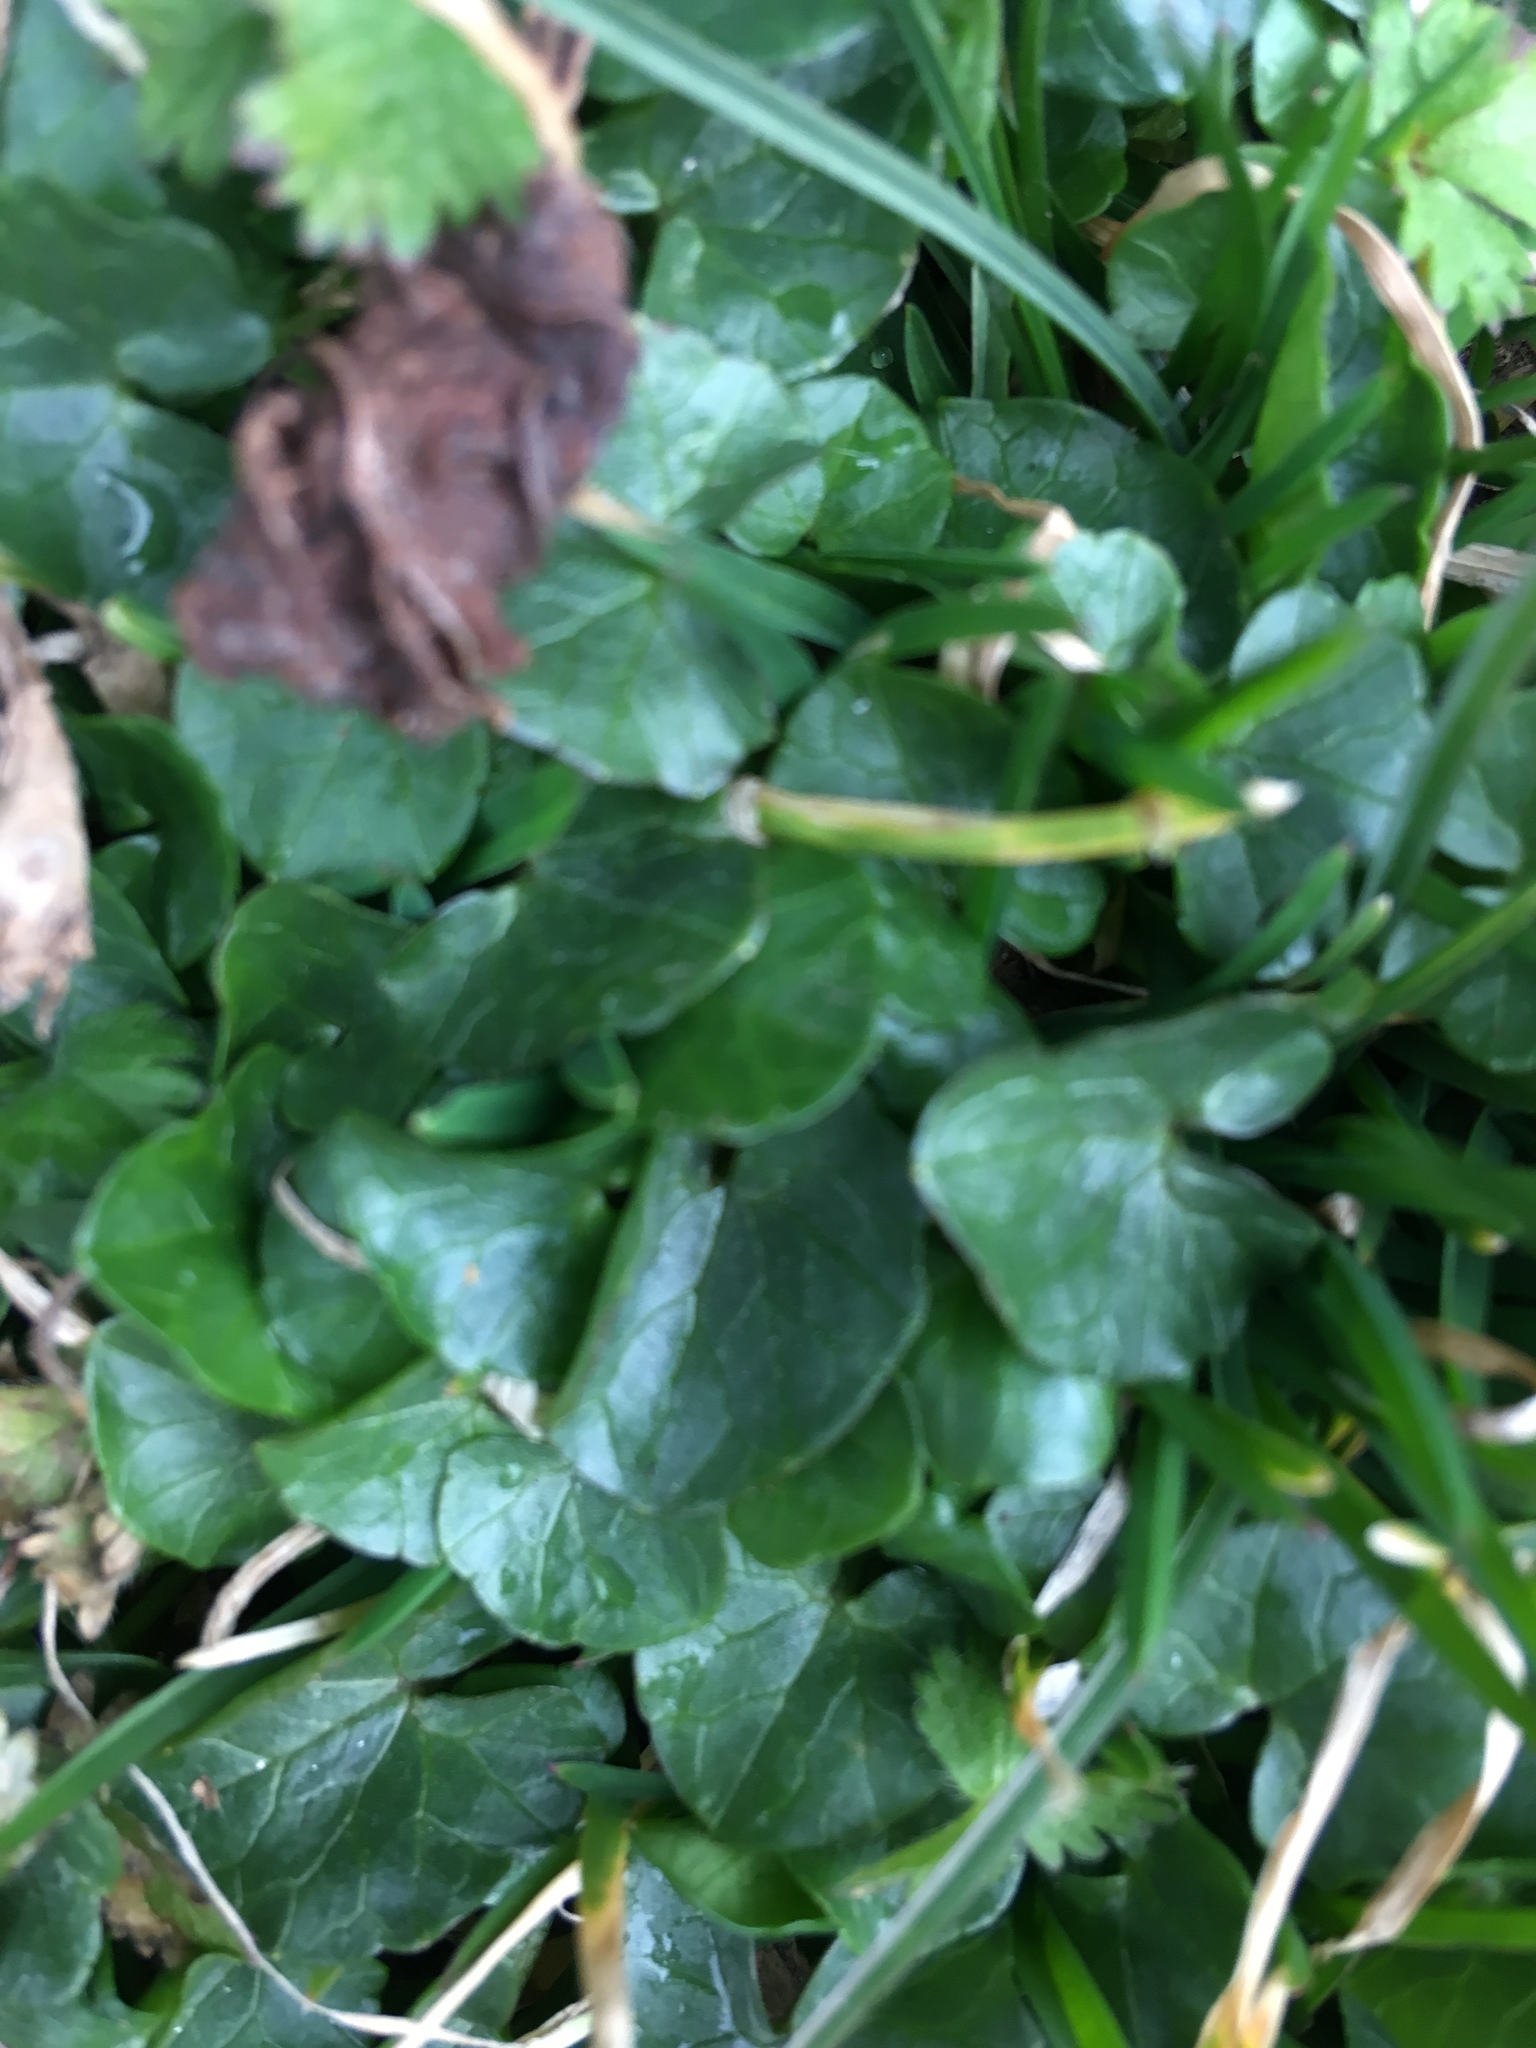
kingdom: Plantae
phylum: Tracheophyta
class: Magnoliopsida
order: Ranunculales
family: Ranunculaceae
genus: Ficaria
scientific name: Ficaria verna
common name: Lesser celandine
